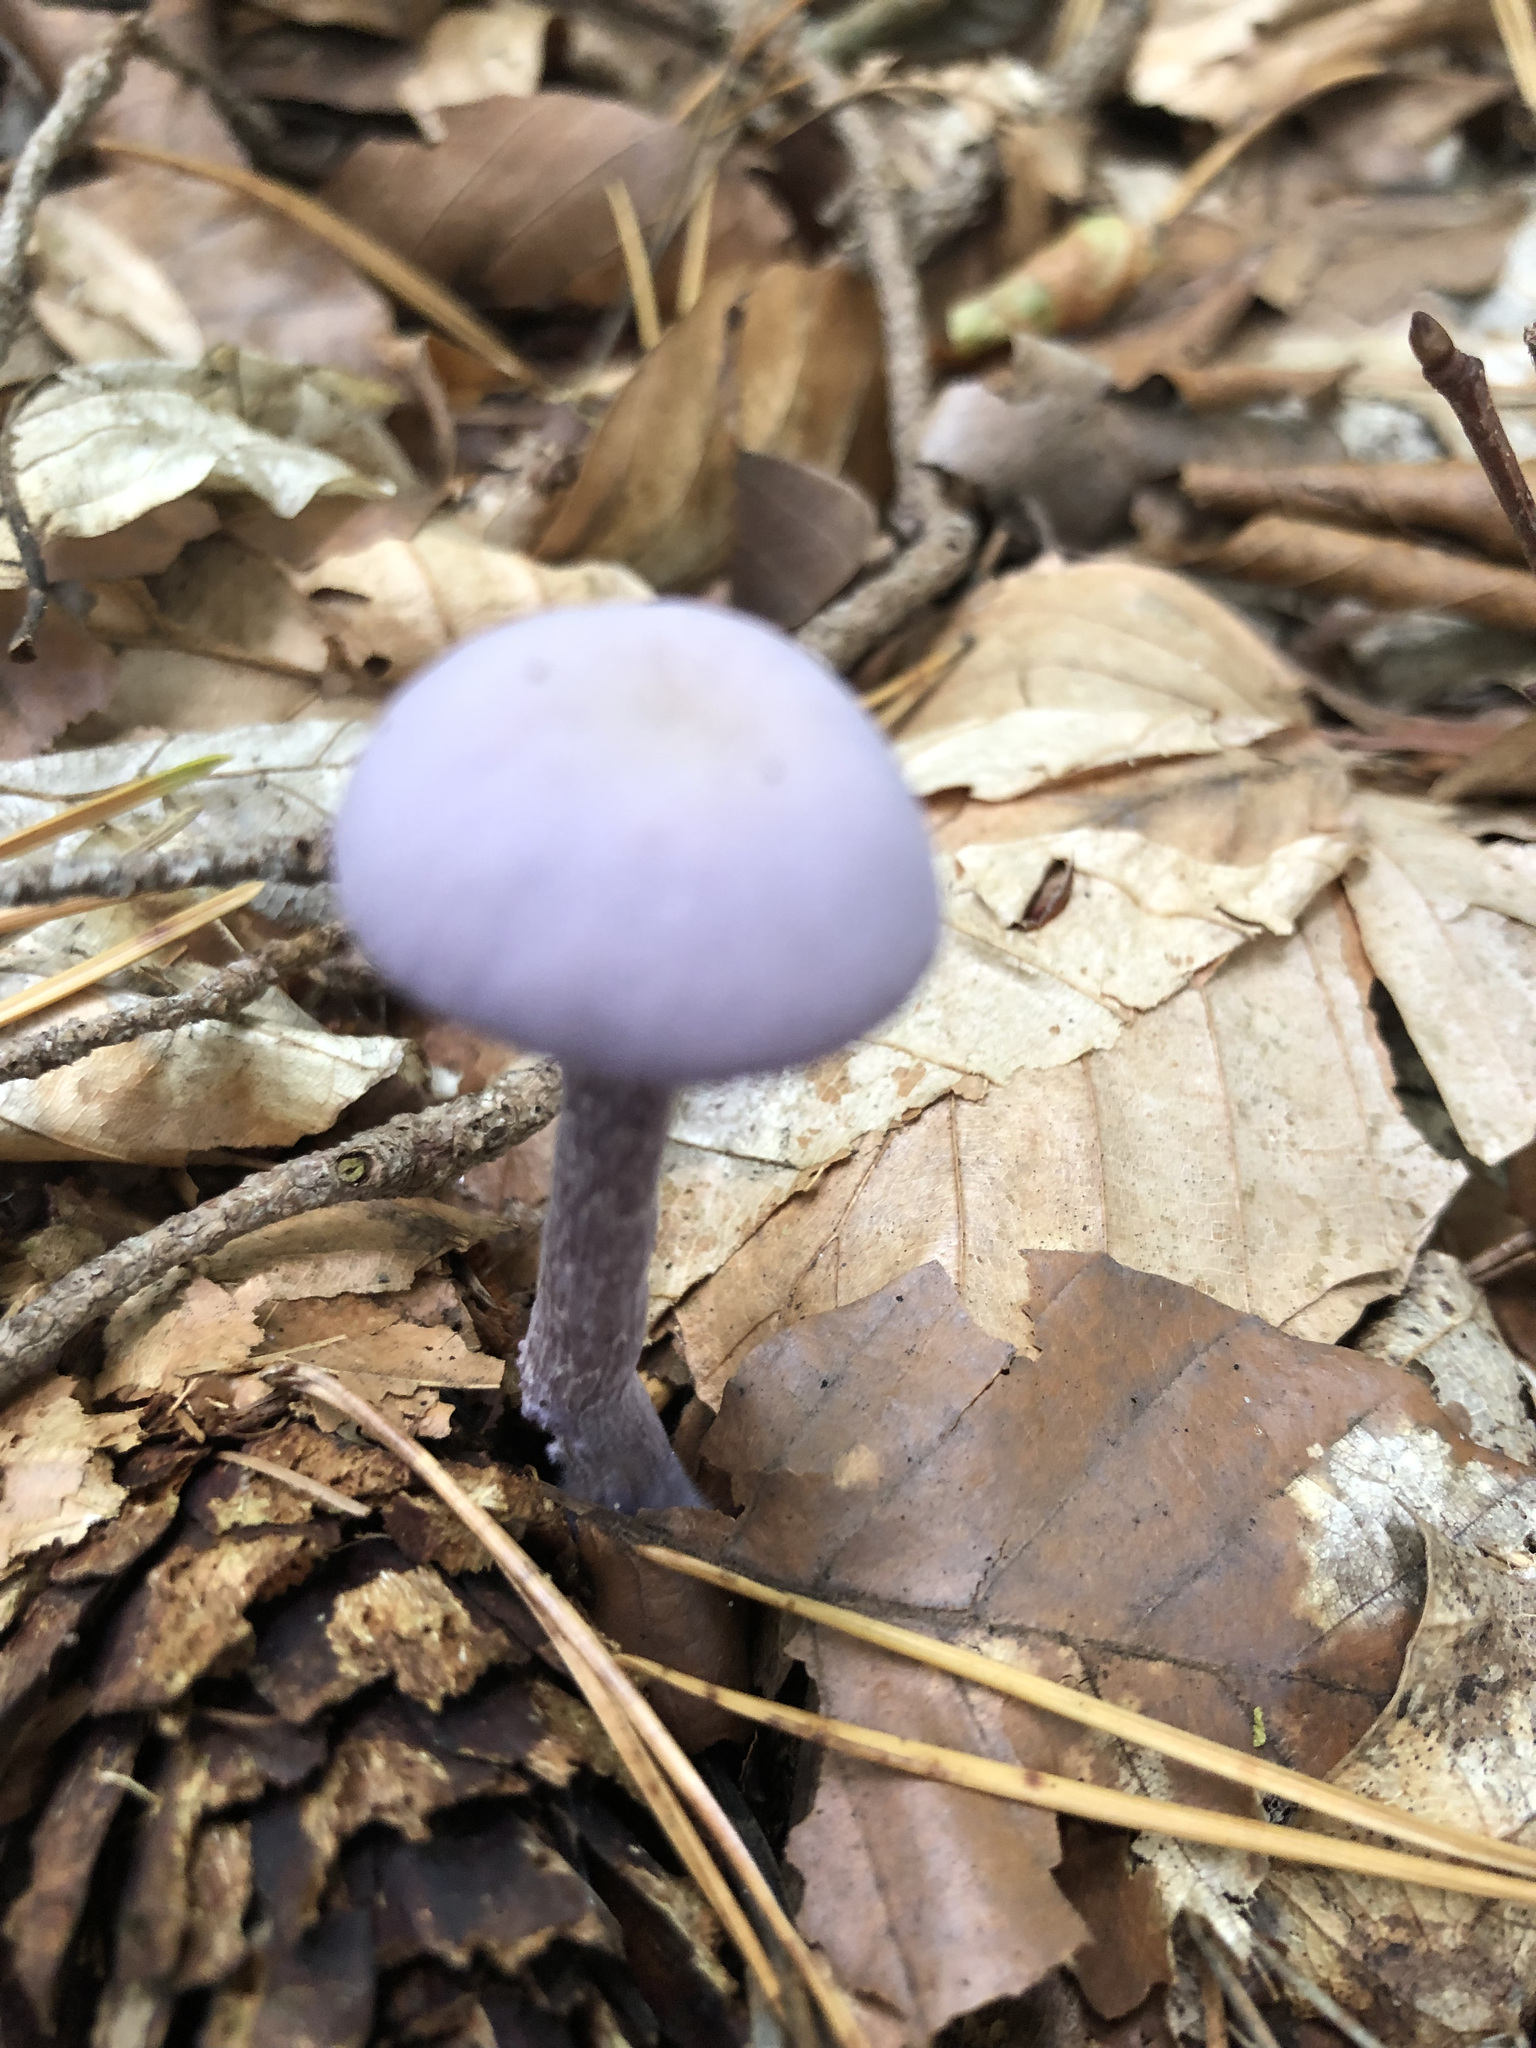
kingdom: Fungi
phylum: Basidiomycota
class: Agaricomycetes
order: Agaricales
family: Hydnangiaceae
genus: Laccaria
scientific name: Laccaria amethystina
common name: Amethyst deceiver
